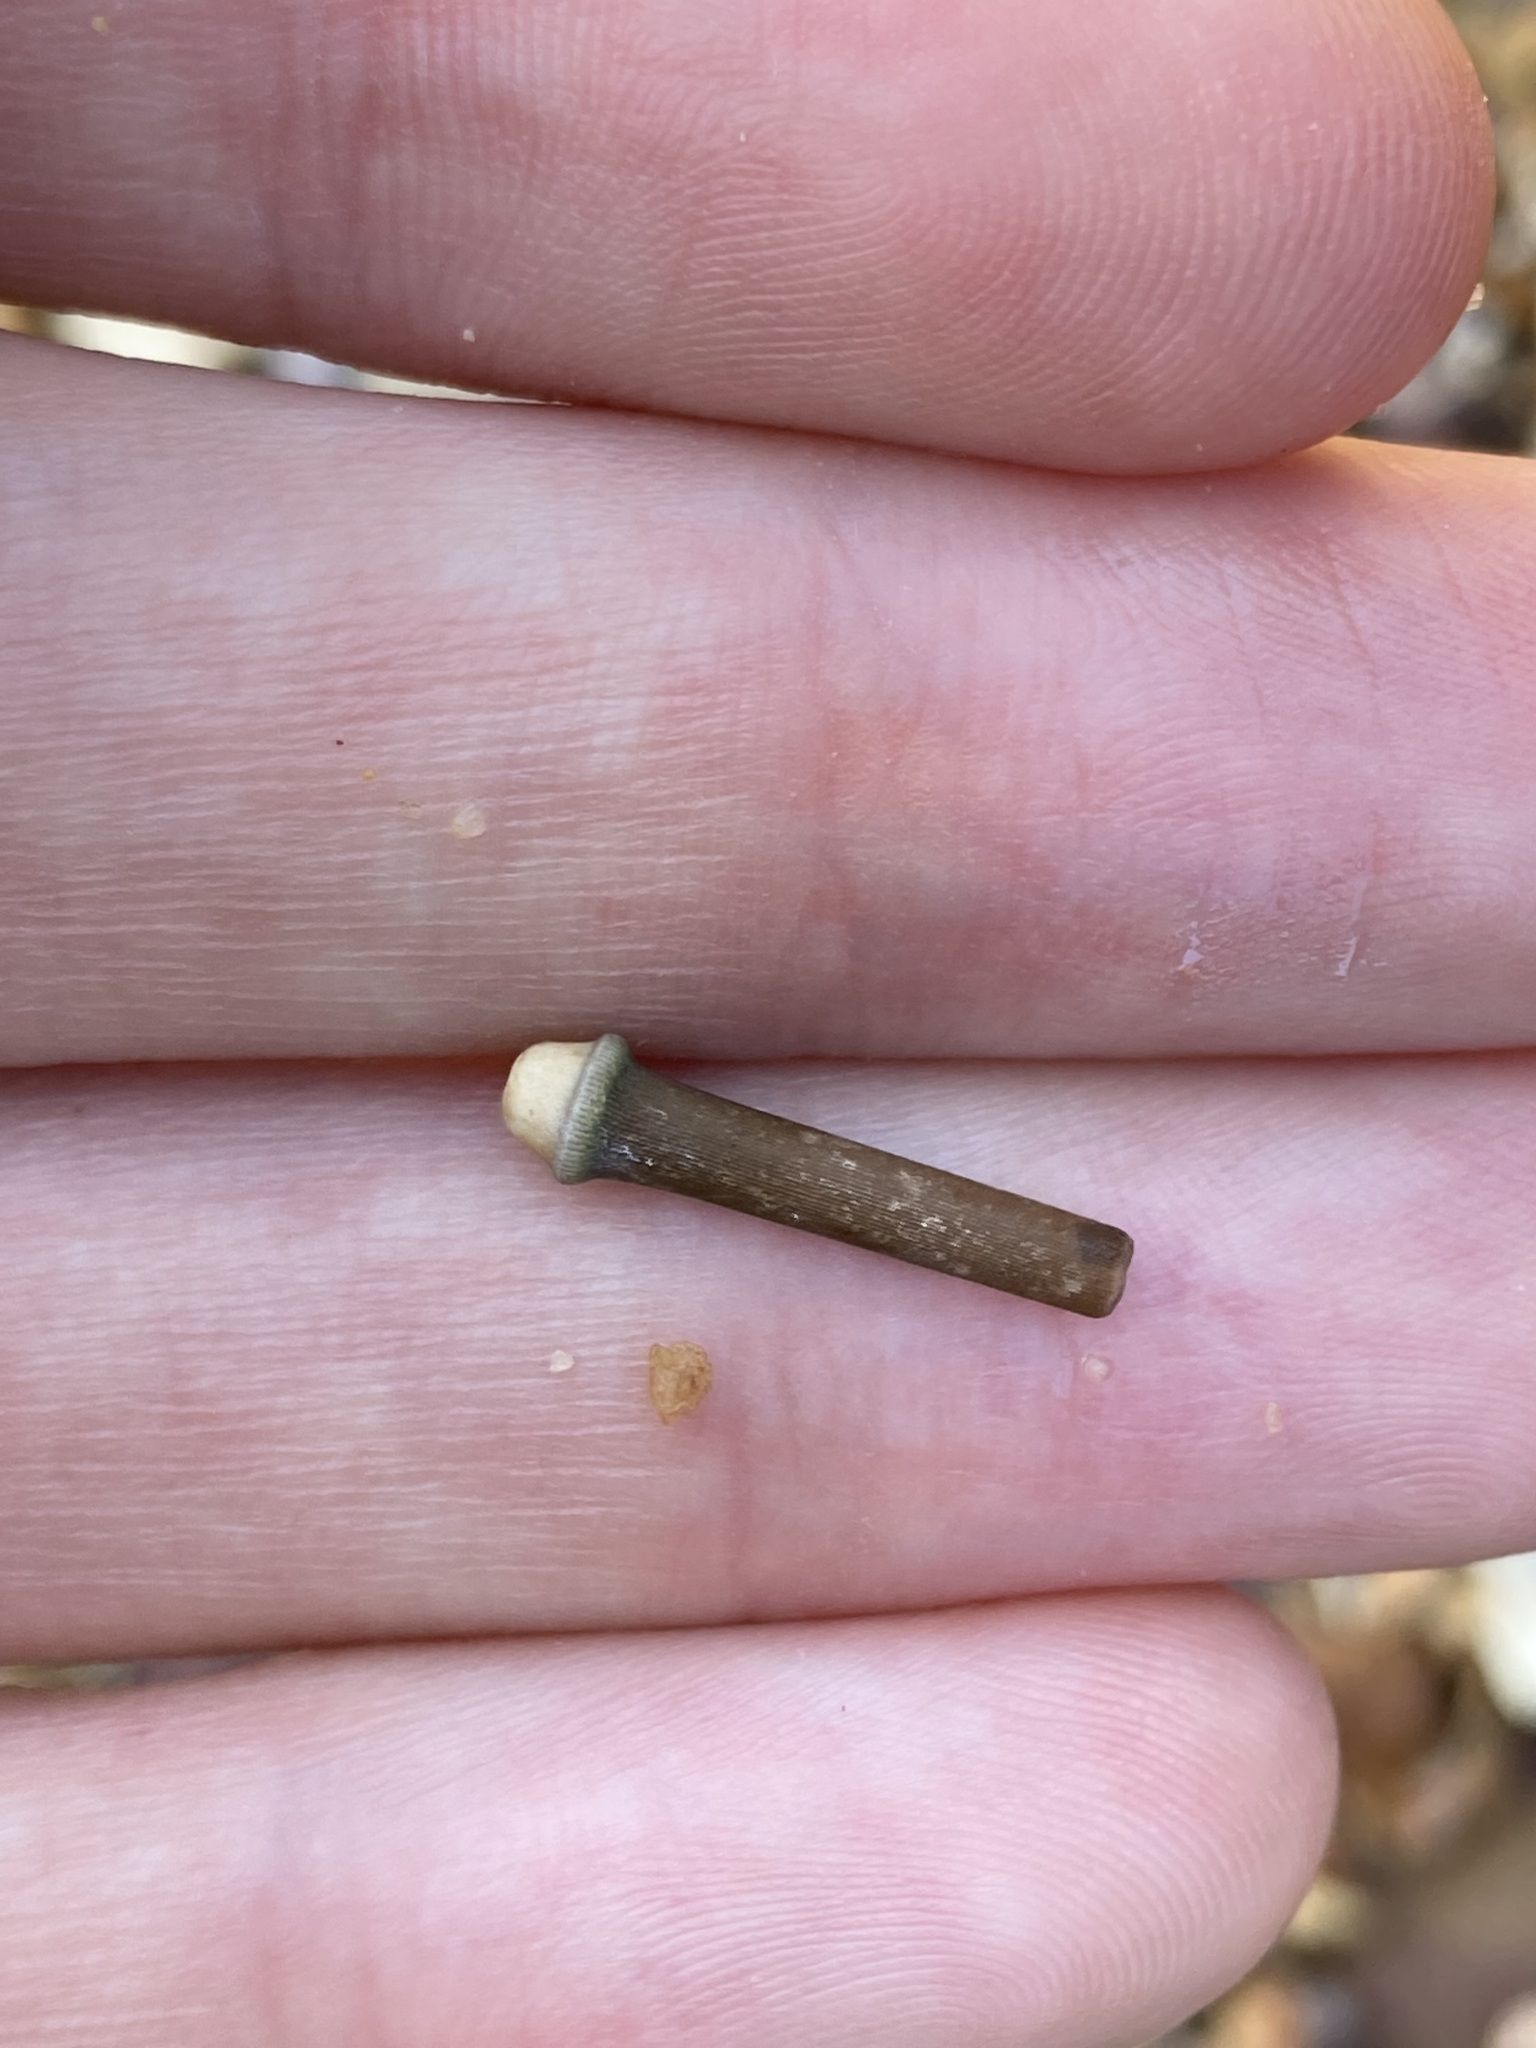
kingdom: Animalia
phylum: Echinodermata
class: Echinoidea
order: Camarodonta
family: Echinometridae
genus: Heliocidaris
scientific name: Heliocidaris erythrogramma
